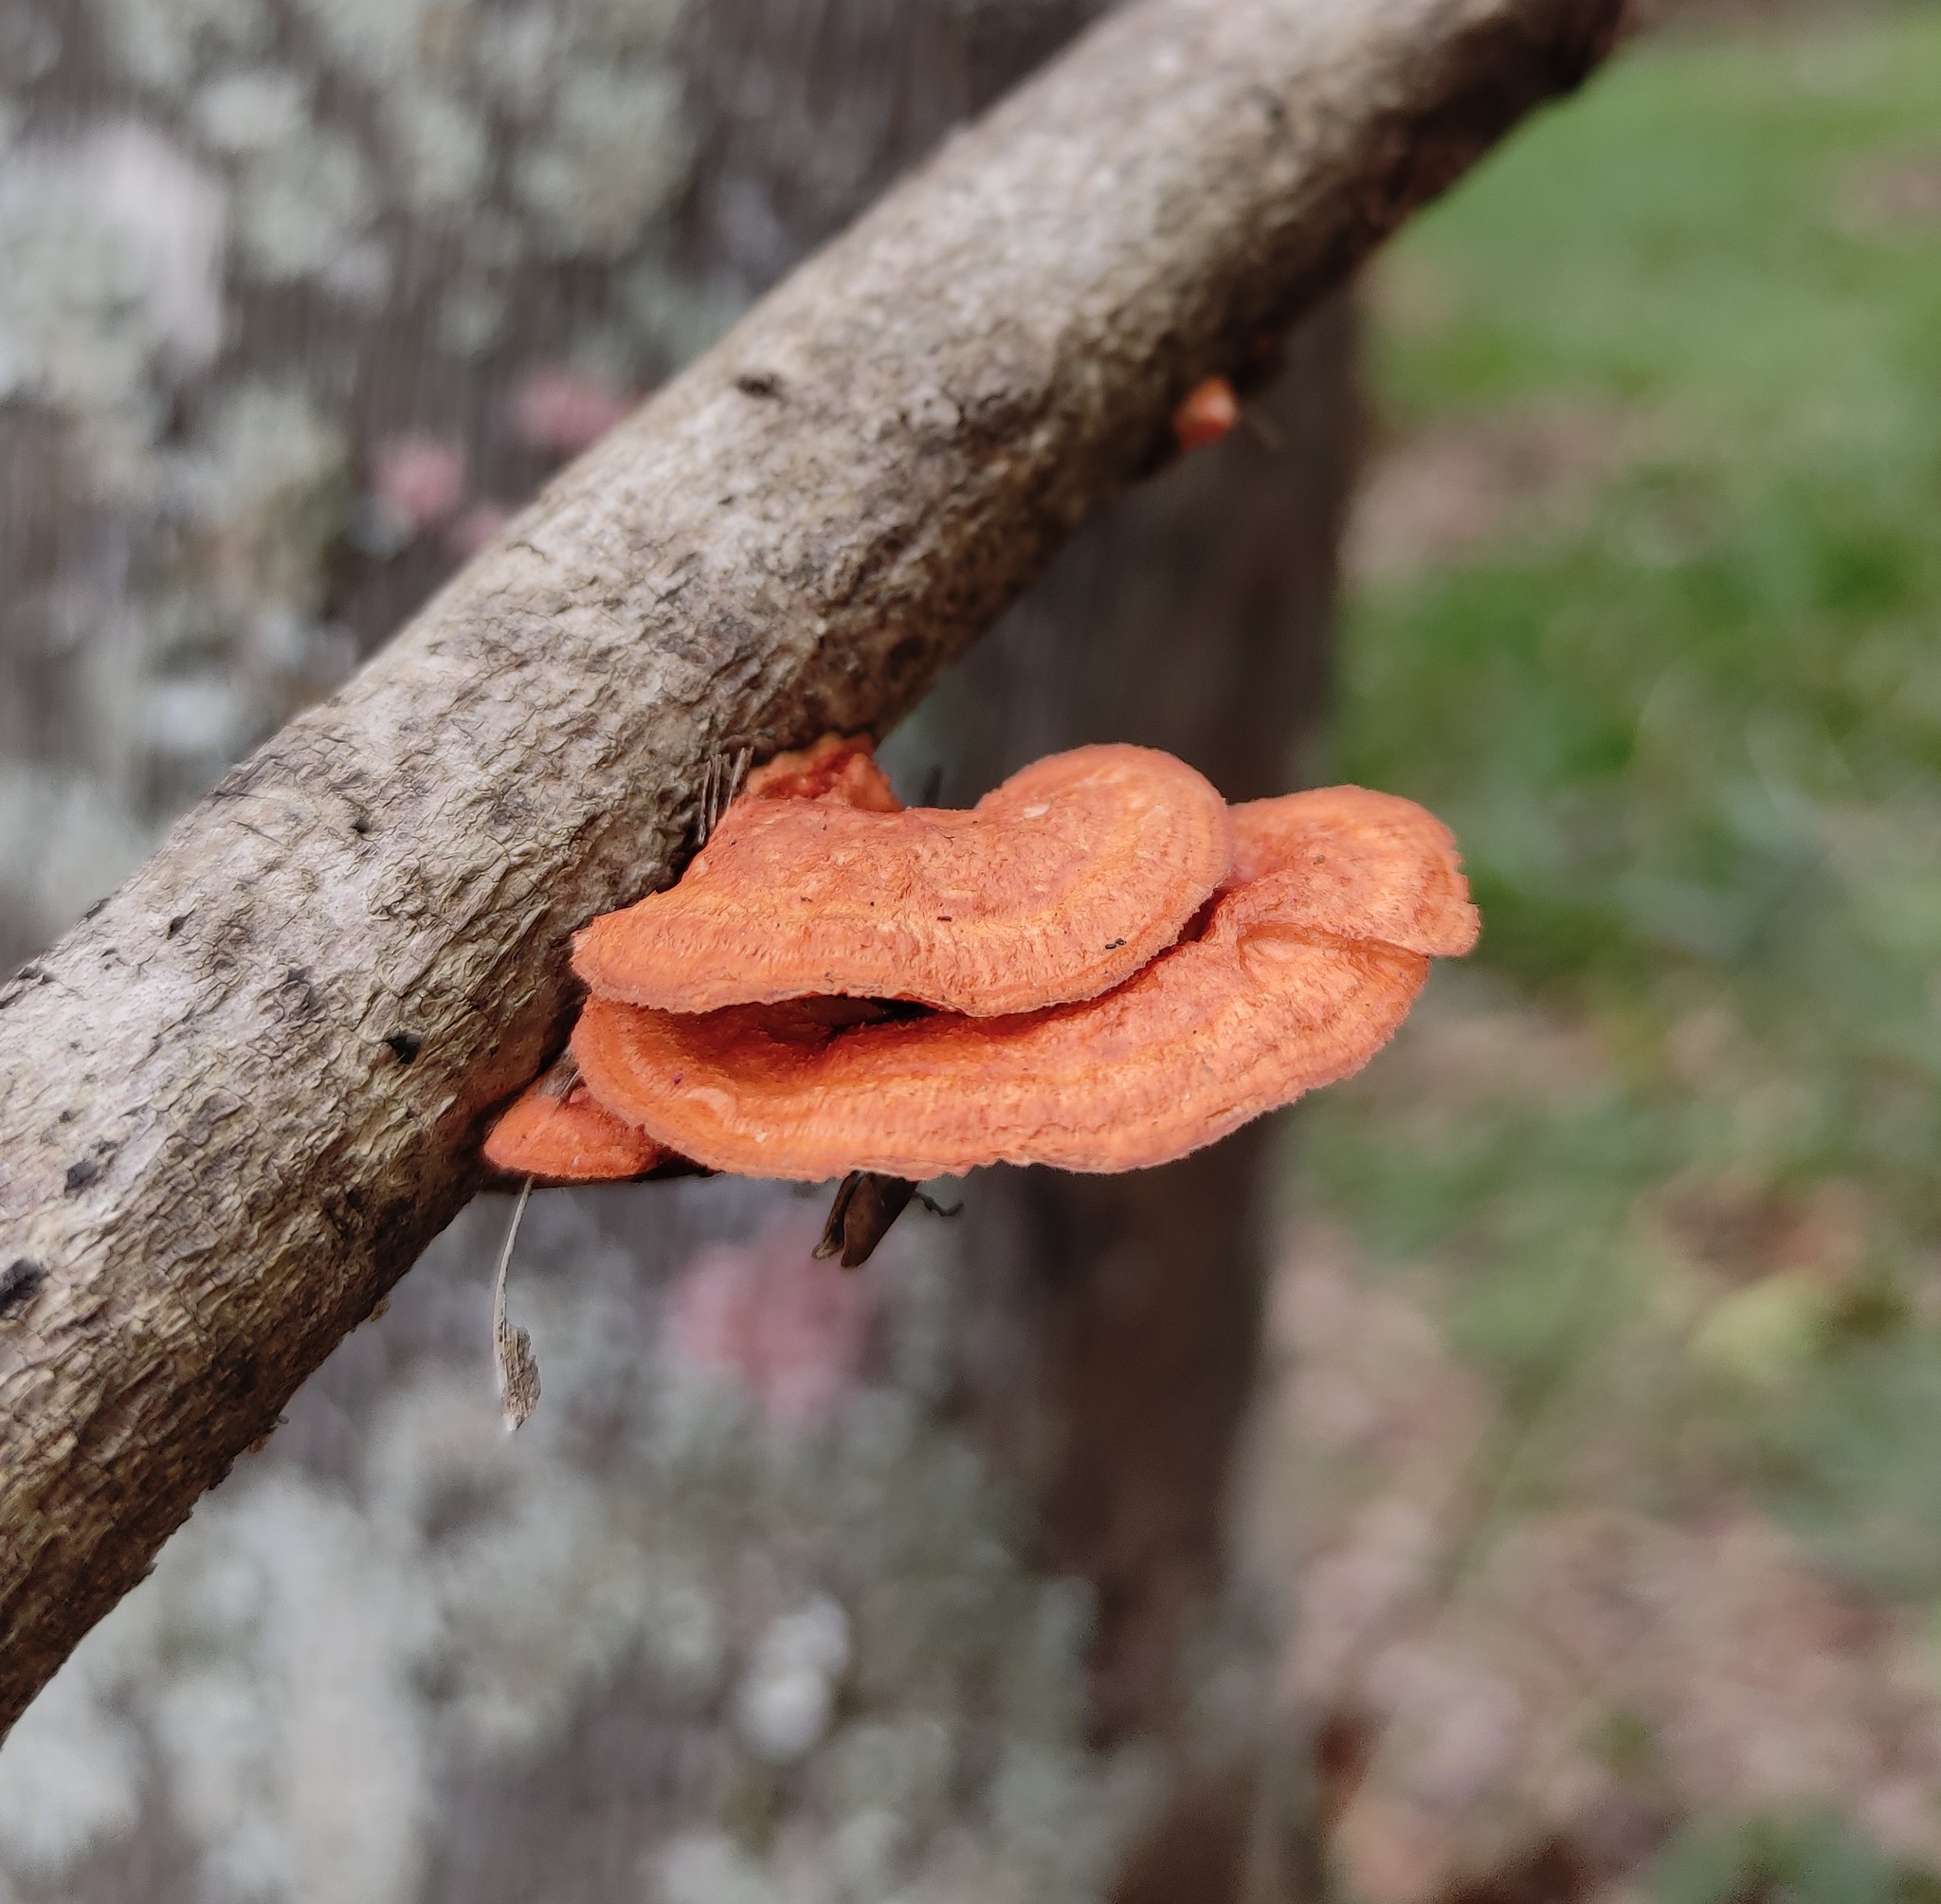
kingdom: Fungi
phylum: Basidiomycota
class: Agaricomycetes
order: Polyporales
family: Polyporaceae
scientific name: Polyporaceae
